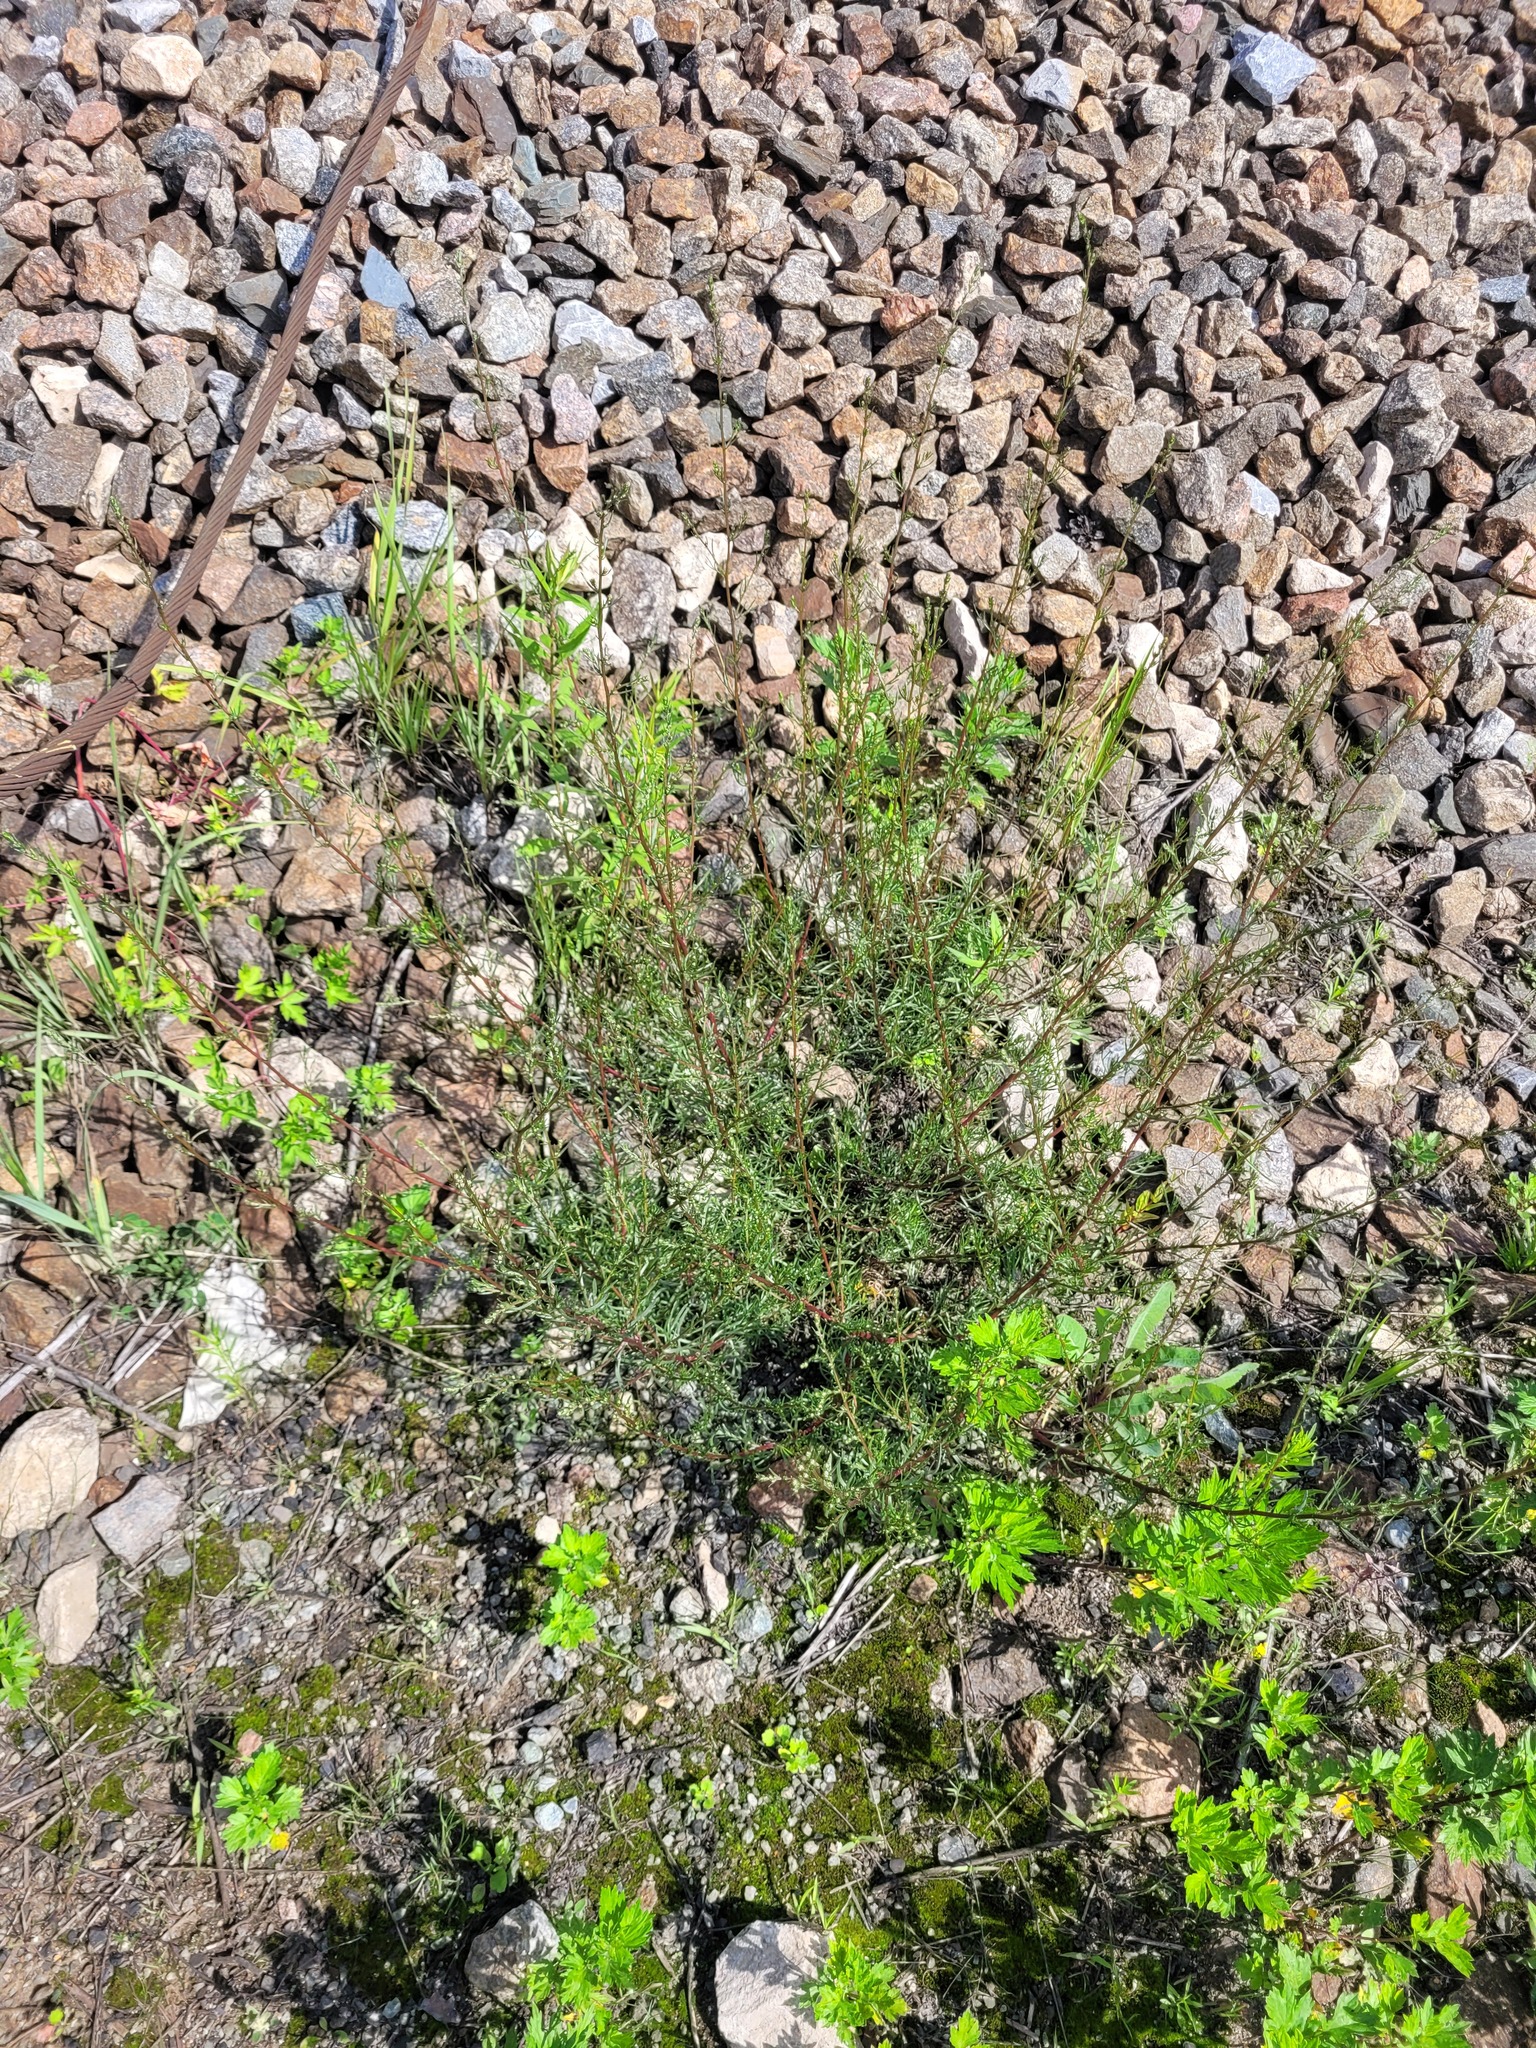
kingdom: Plantae
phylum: Tracheophyta
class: Magnoliopsida
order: Asterales
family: Asteraceae
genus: Artemisia
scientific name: Artemisia campestris
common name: Field wormwood
